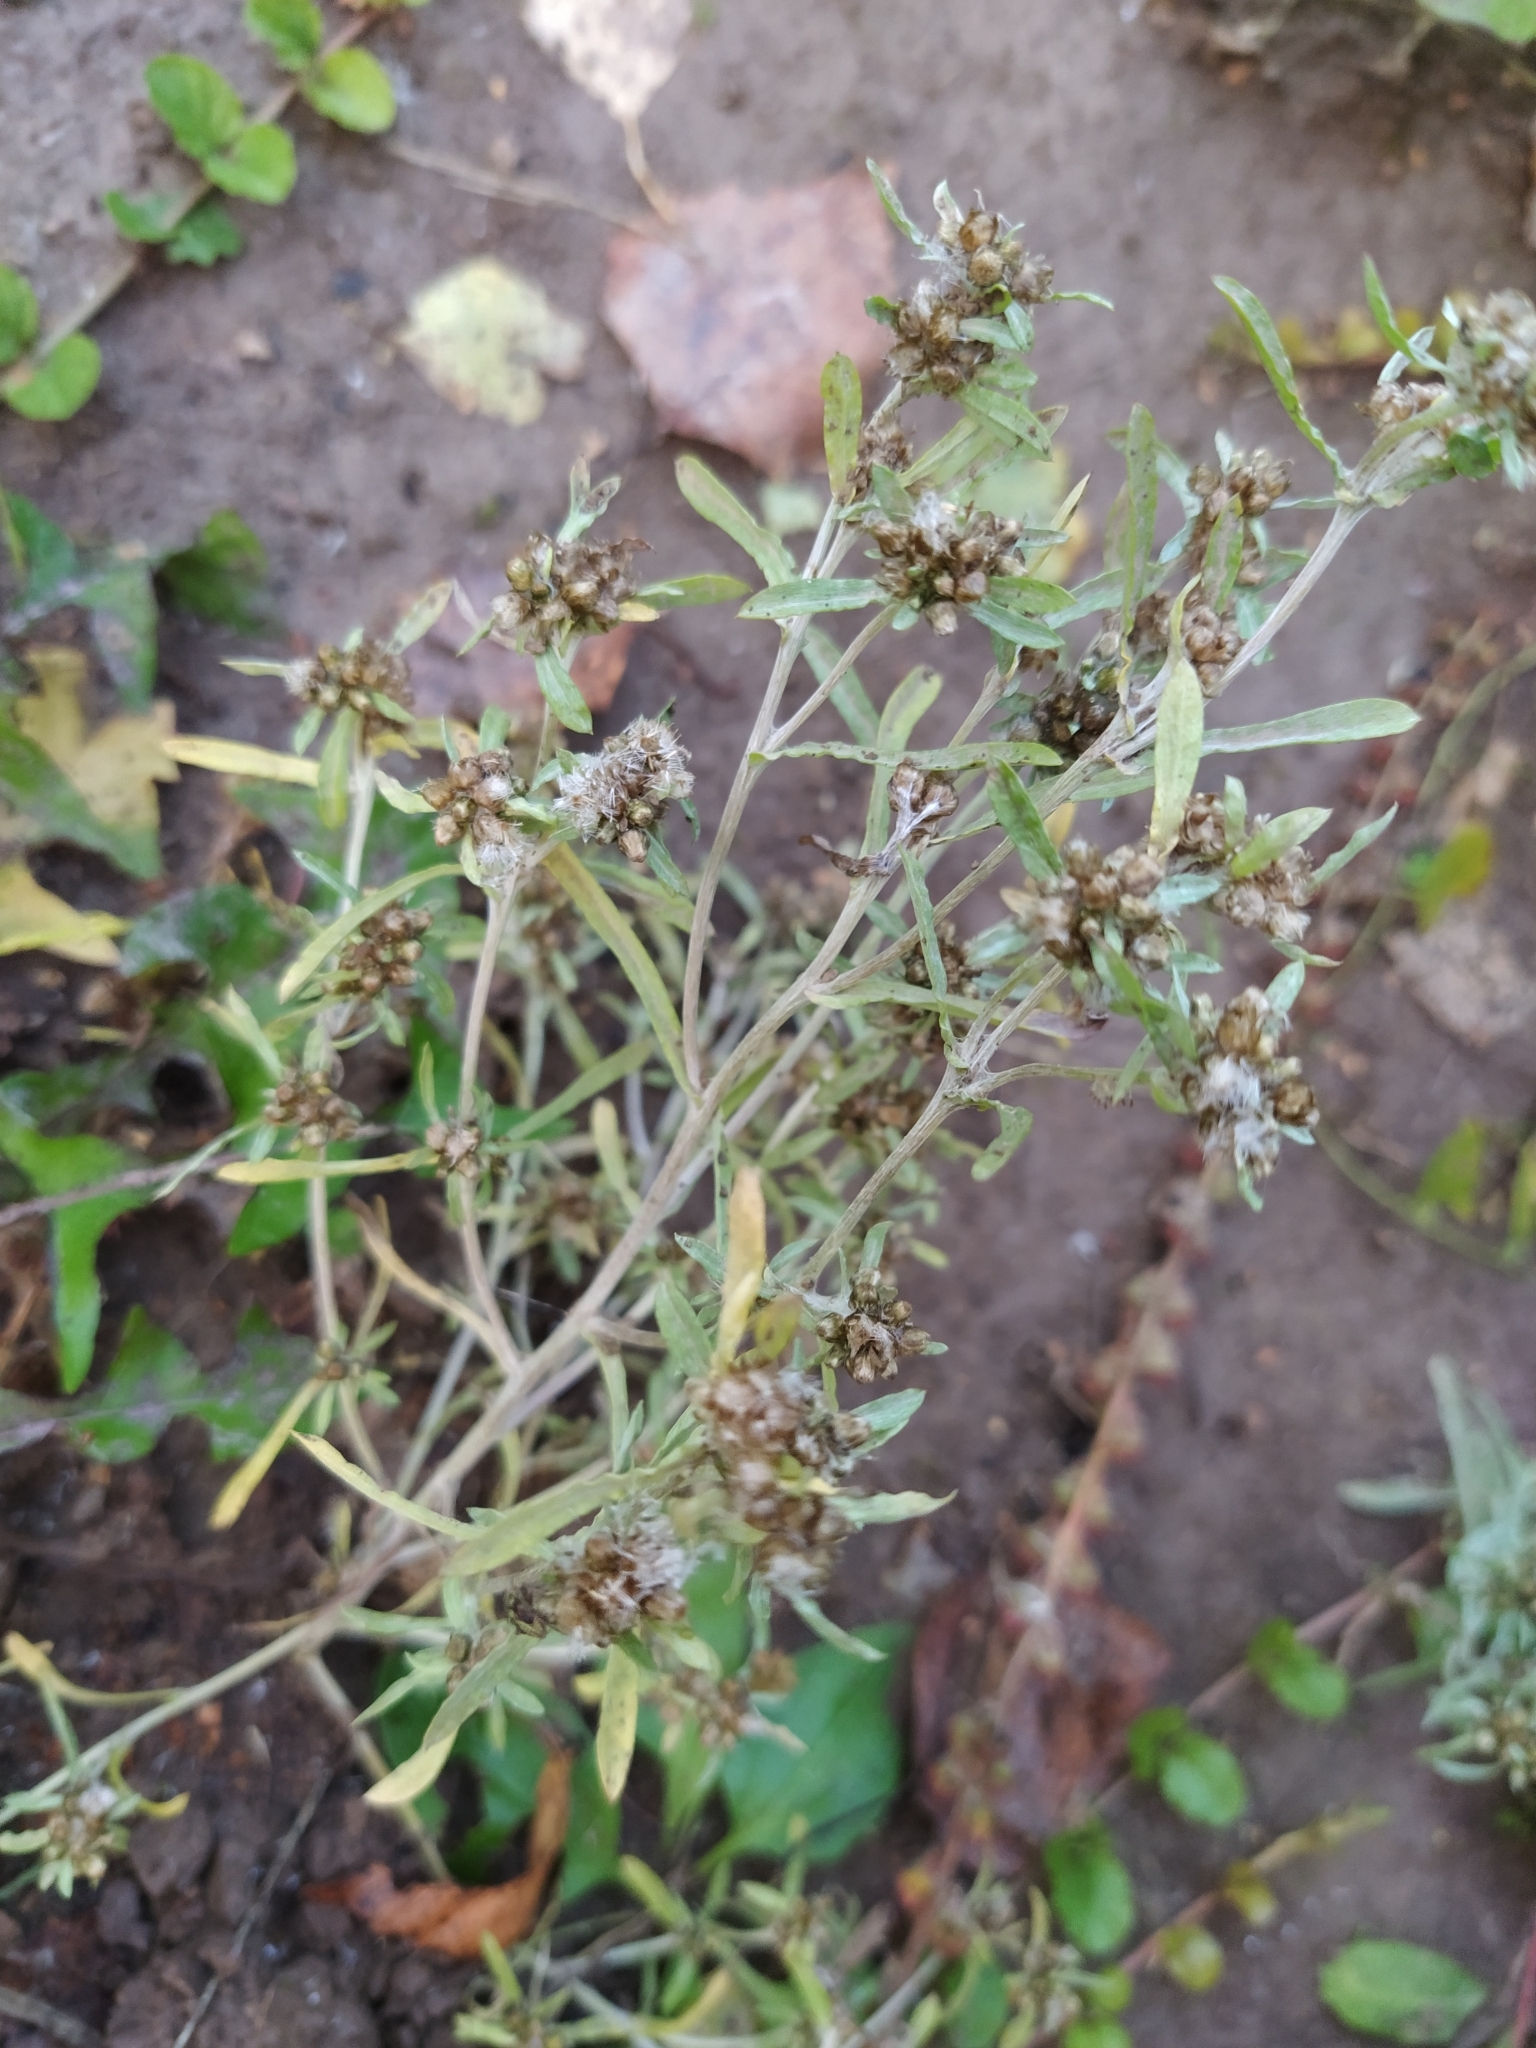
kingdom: Plantae
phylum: Tracheophyta
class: Magnoliopsida
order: Asterales
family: Asteraceae
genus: Gnaphalium
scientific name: Gnaphalium uliginosum
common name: Marsh cudweed
